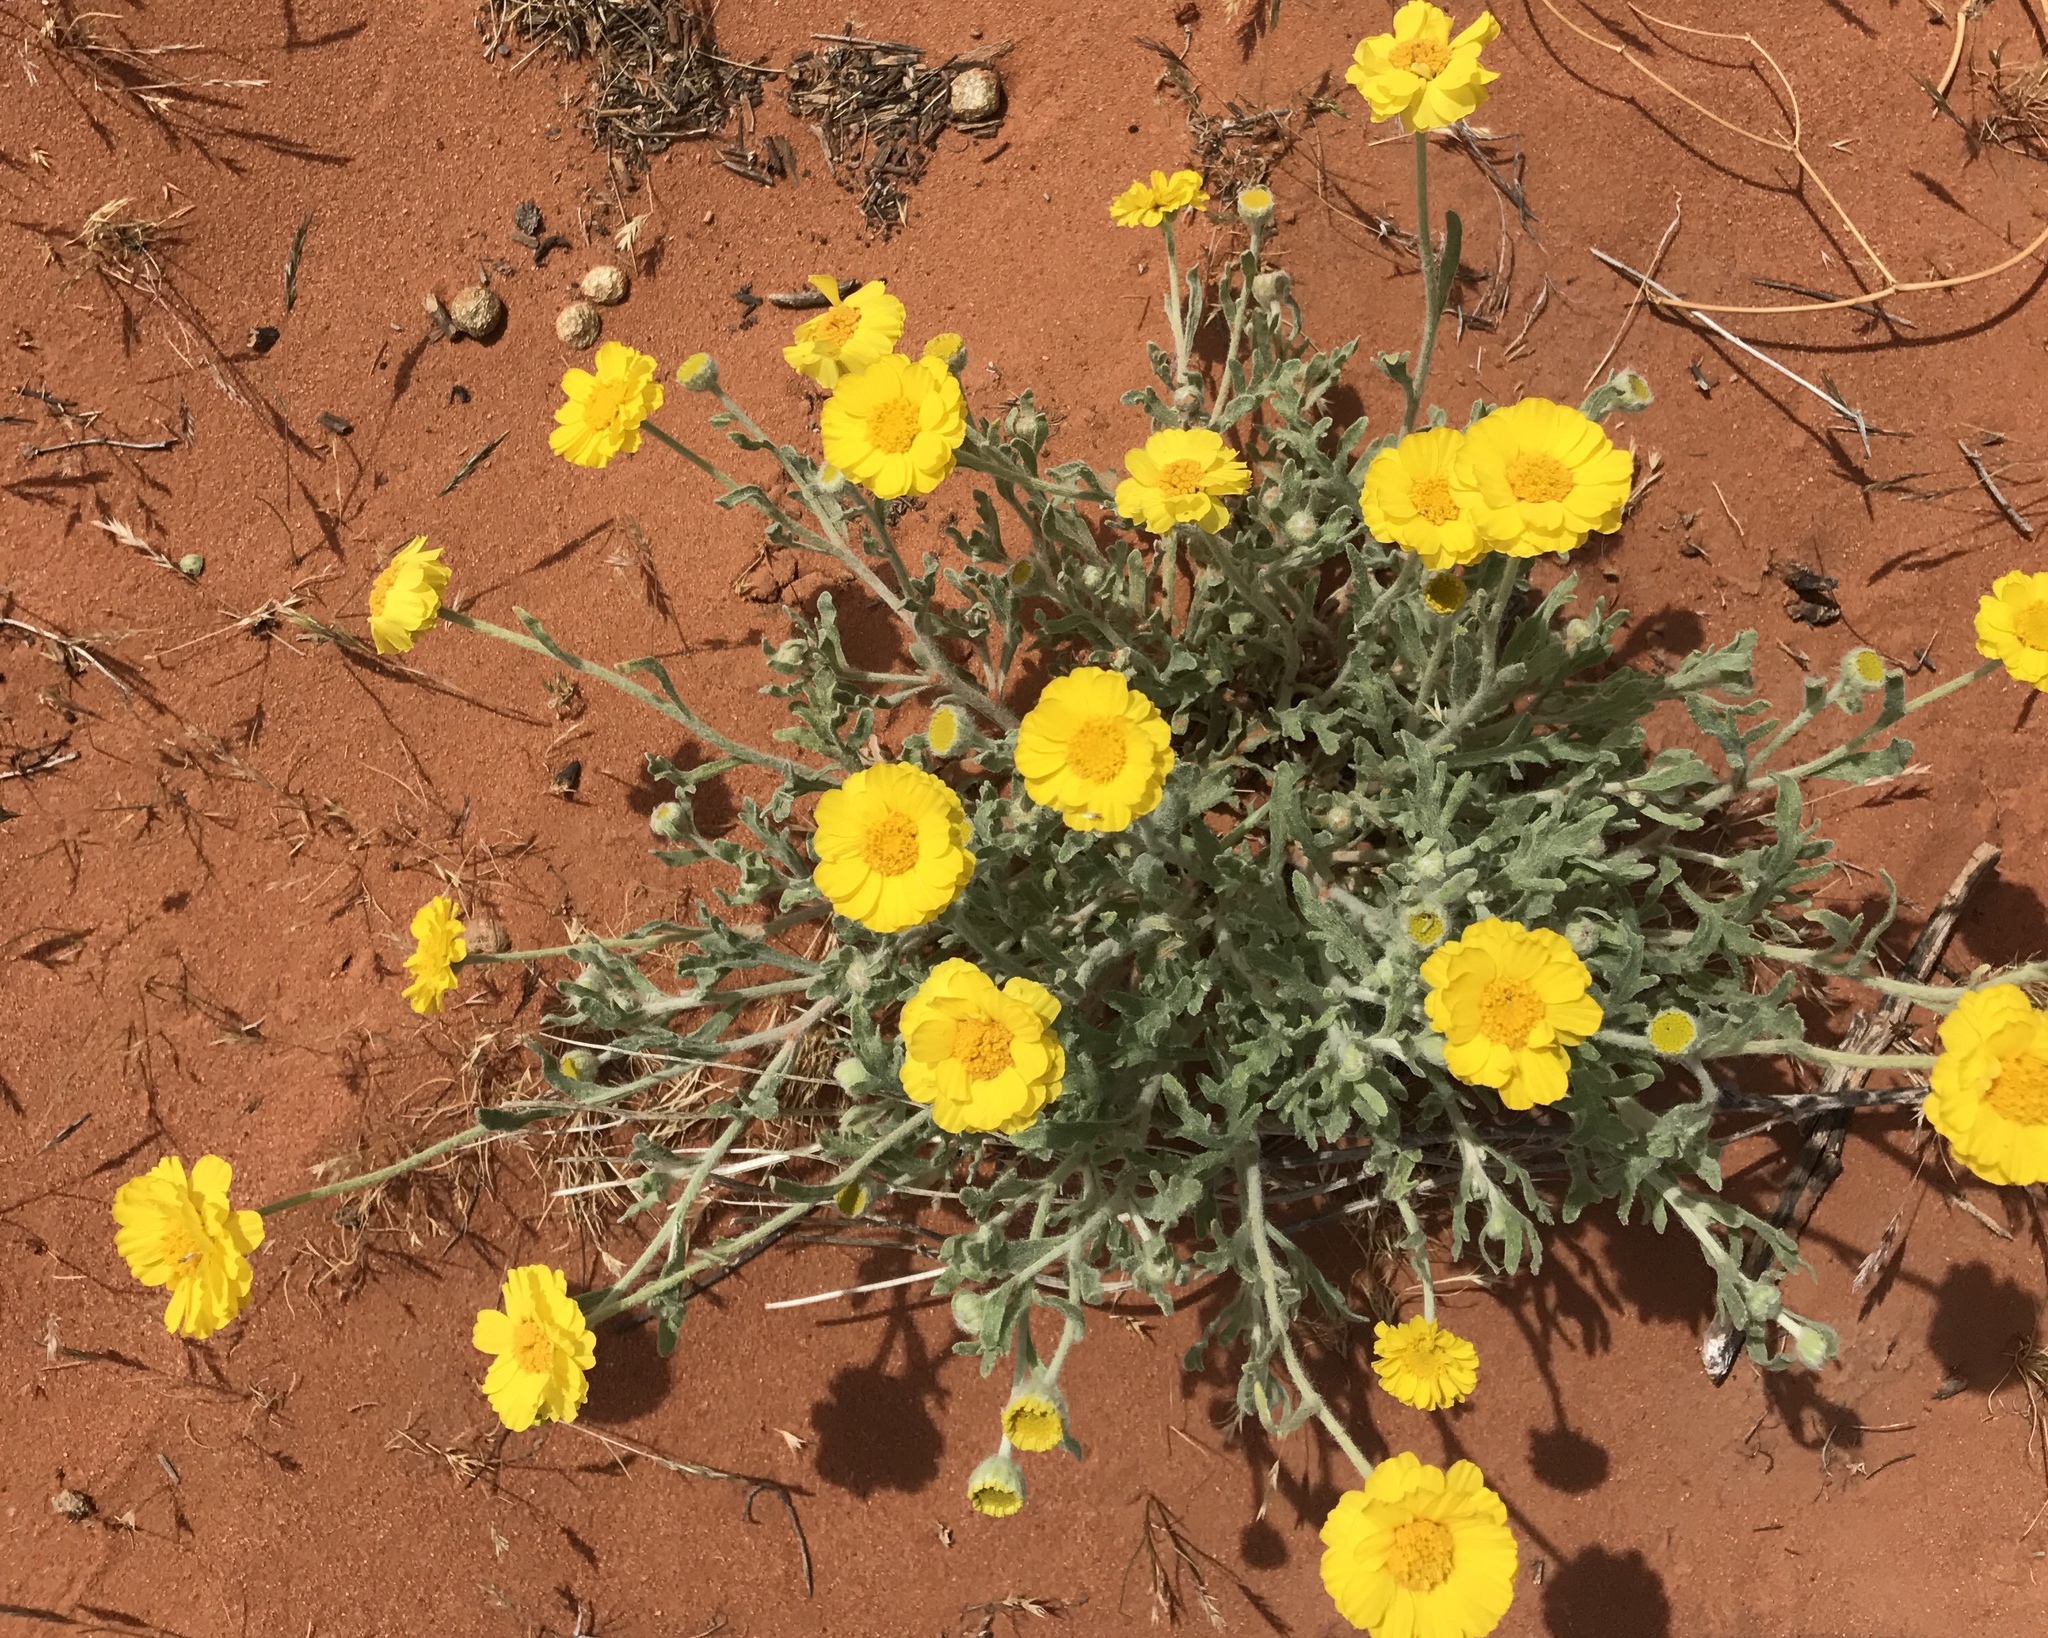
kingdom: Plantae
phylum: Tracheophyta
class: Magnoliopsida
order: Asterales
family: Asteraceae
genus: Baileya
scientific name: Baileya pleniradiata
